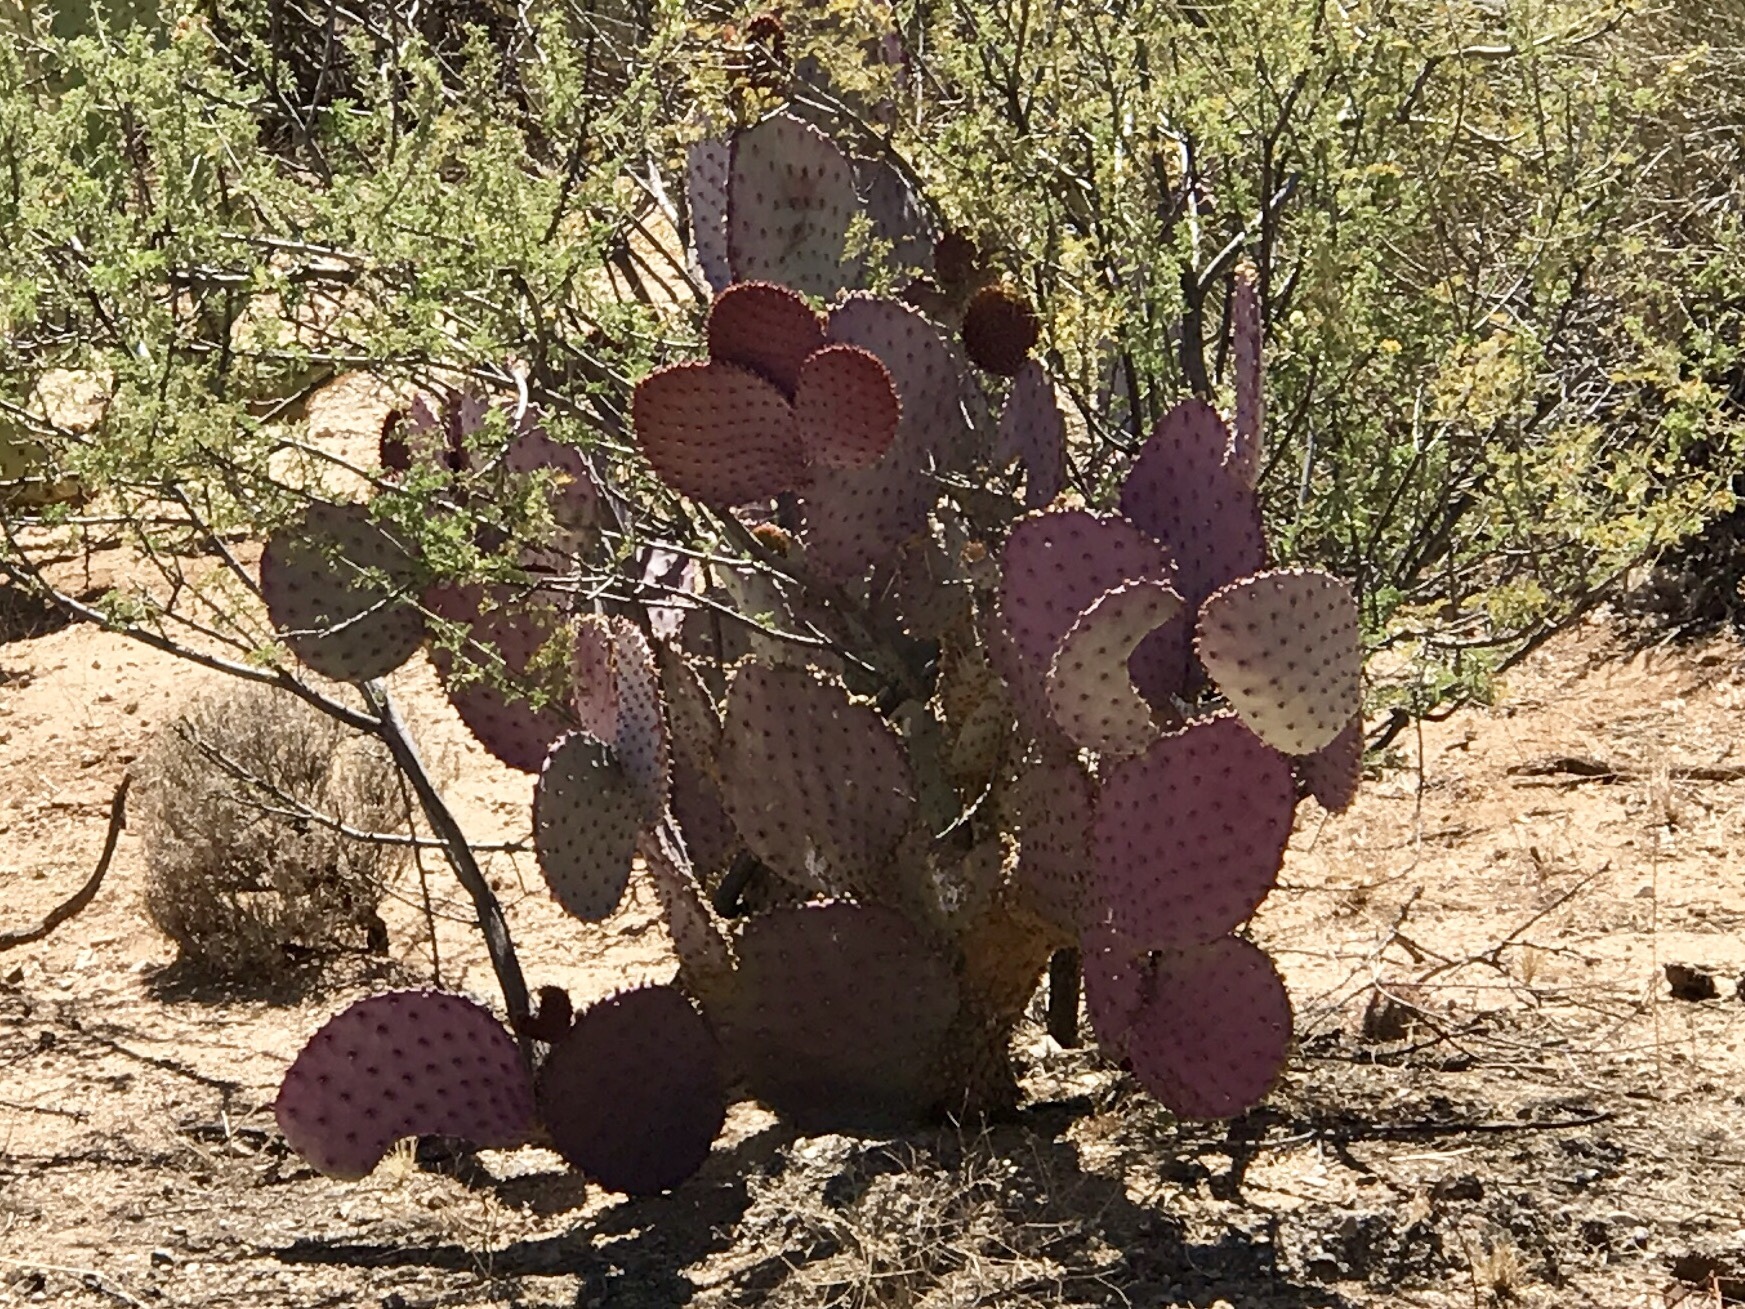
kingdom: Plantae
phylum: Tracheophyta
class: Magnoliopsida
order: Caryophyllales
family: Cactaceae
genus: Opuntia
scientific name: Opuntia gosseliniana
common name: Violet prickly-pear
